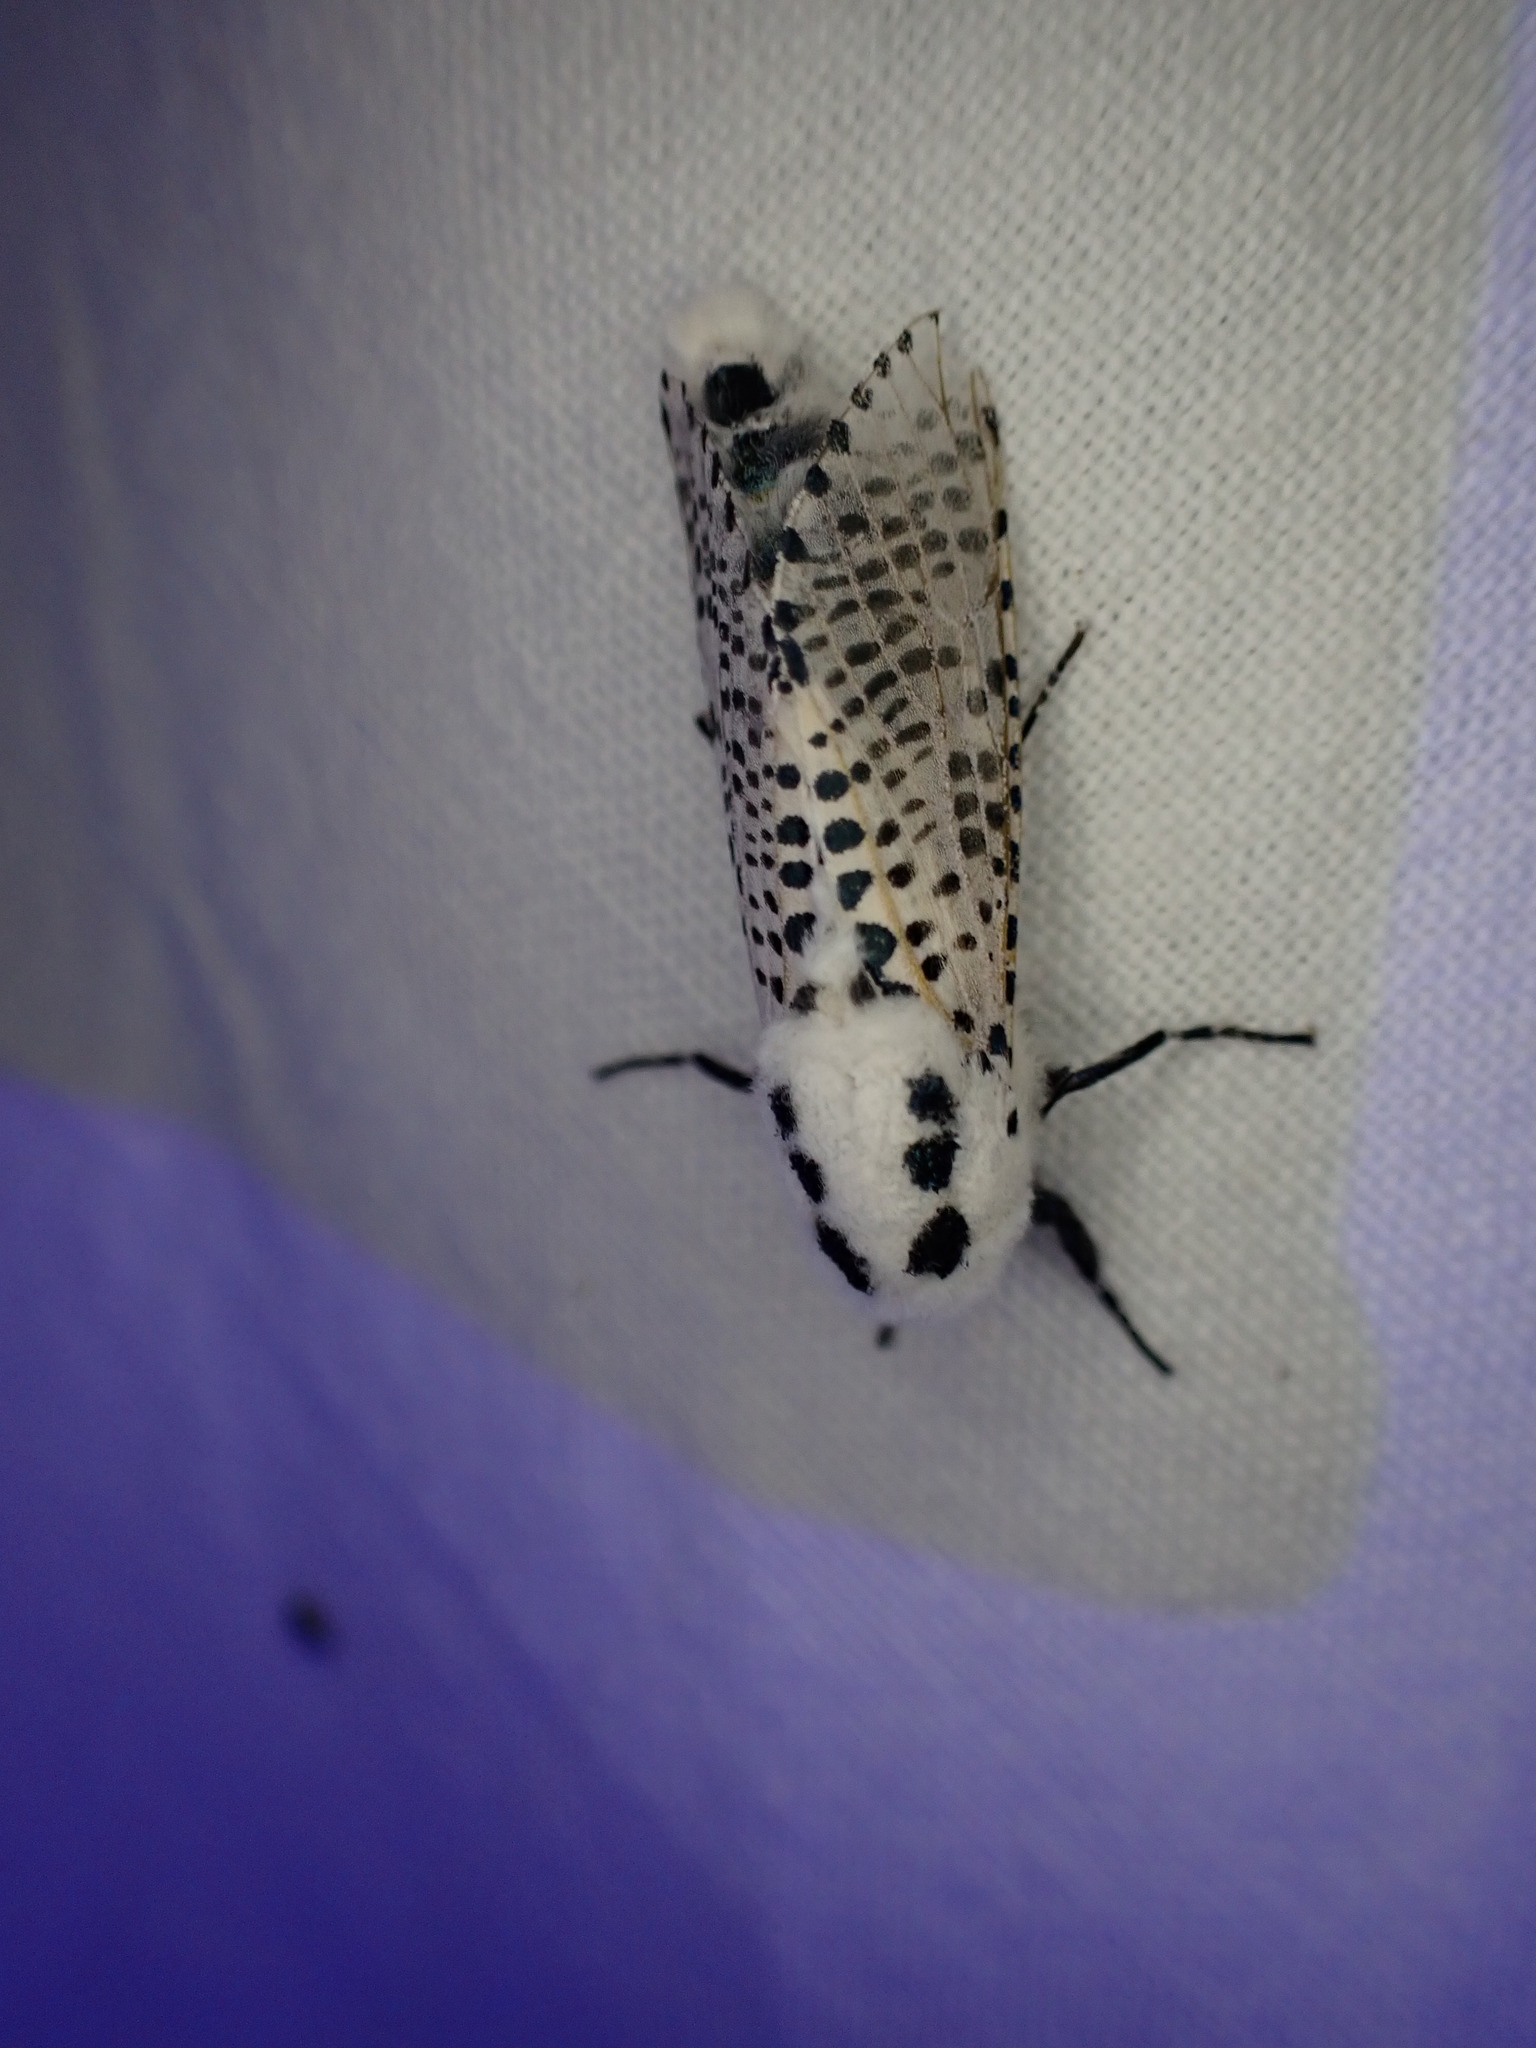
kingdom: Animalia
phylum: Arthropoda
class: Insecta
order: Lepidoptera
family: Cossidae
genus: Zeuzera
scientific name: Zeuzera pyrina
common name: Leopard moth
